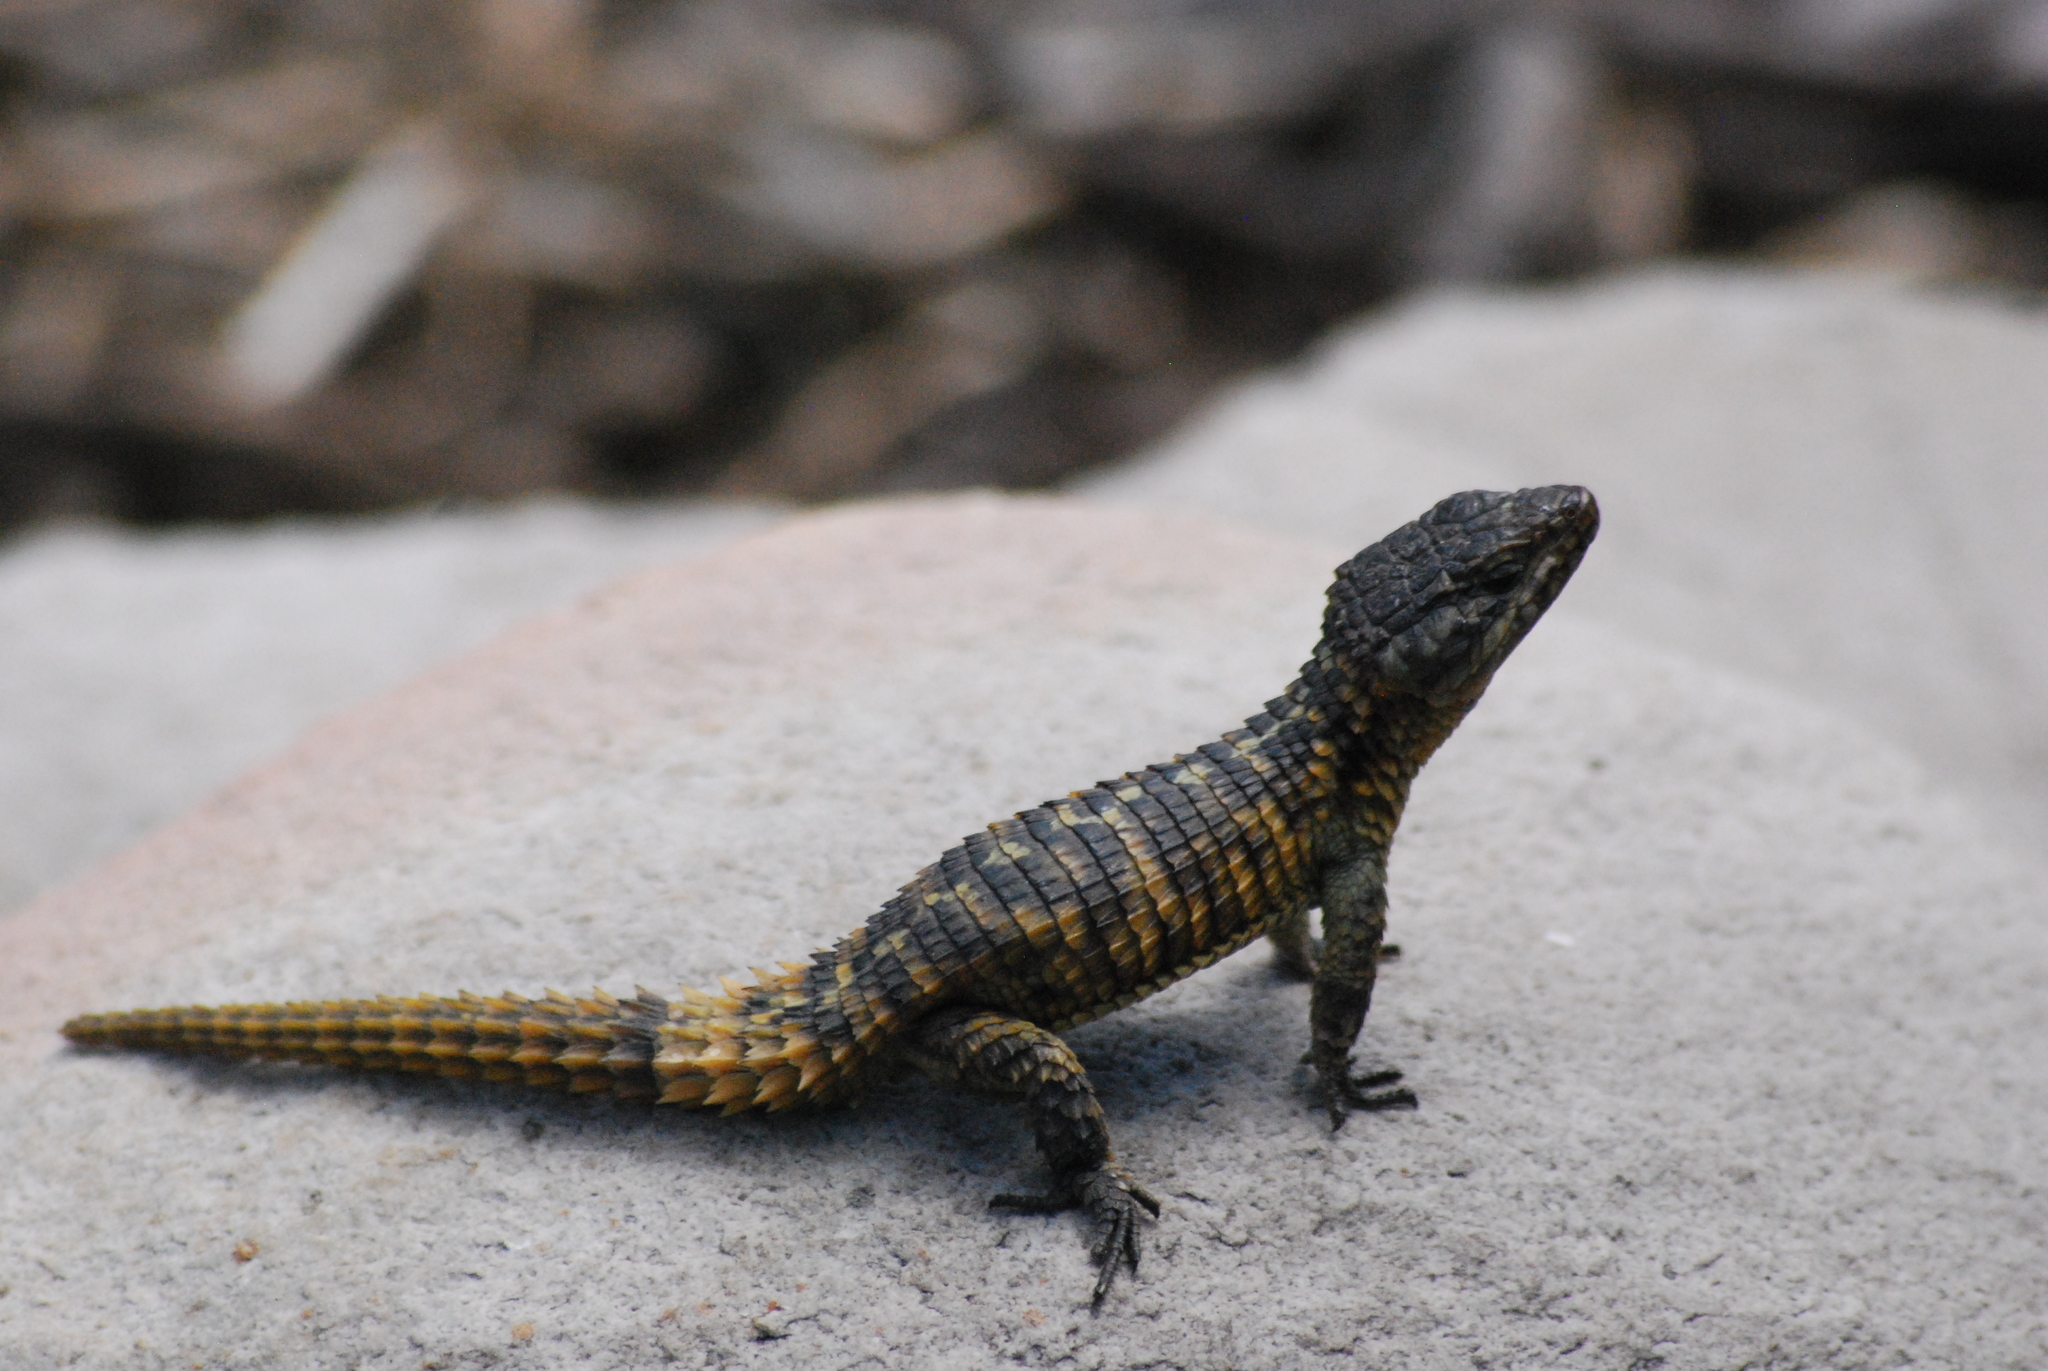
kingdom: Animalia
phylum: Chordata
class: Squamata
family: Cordylidae
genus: Cordylus
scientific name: Cordylus cordylus
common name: Cape girdled lizard
